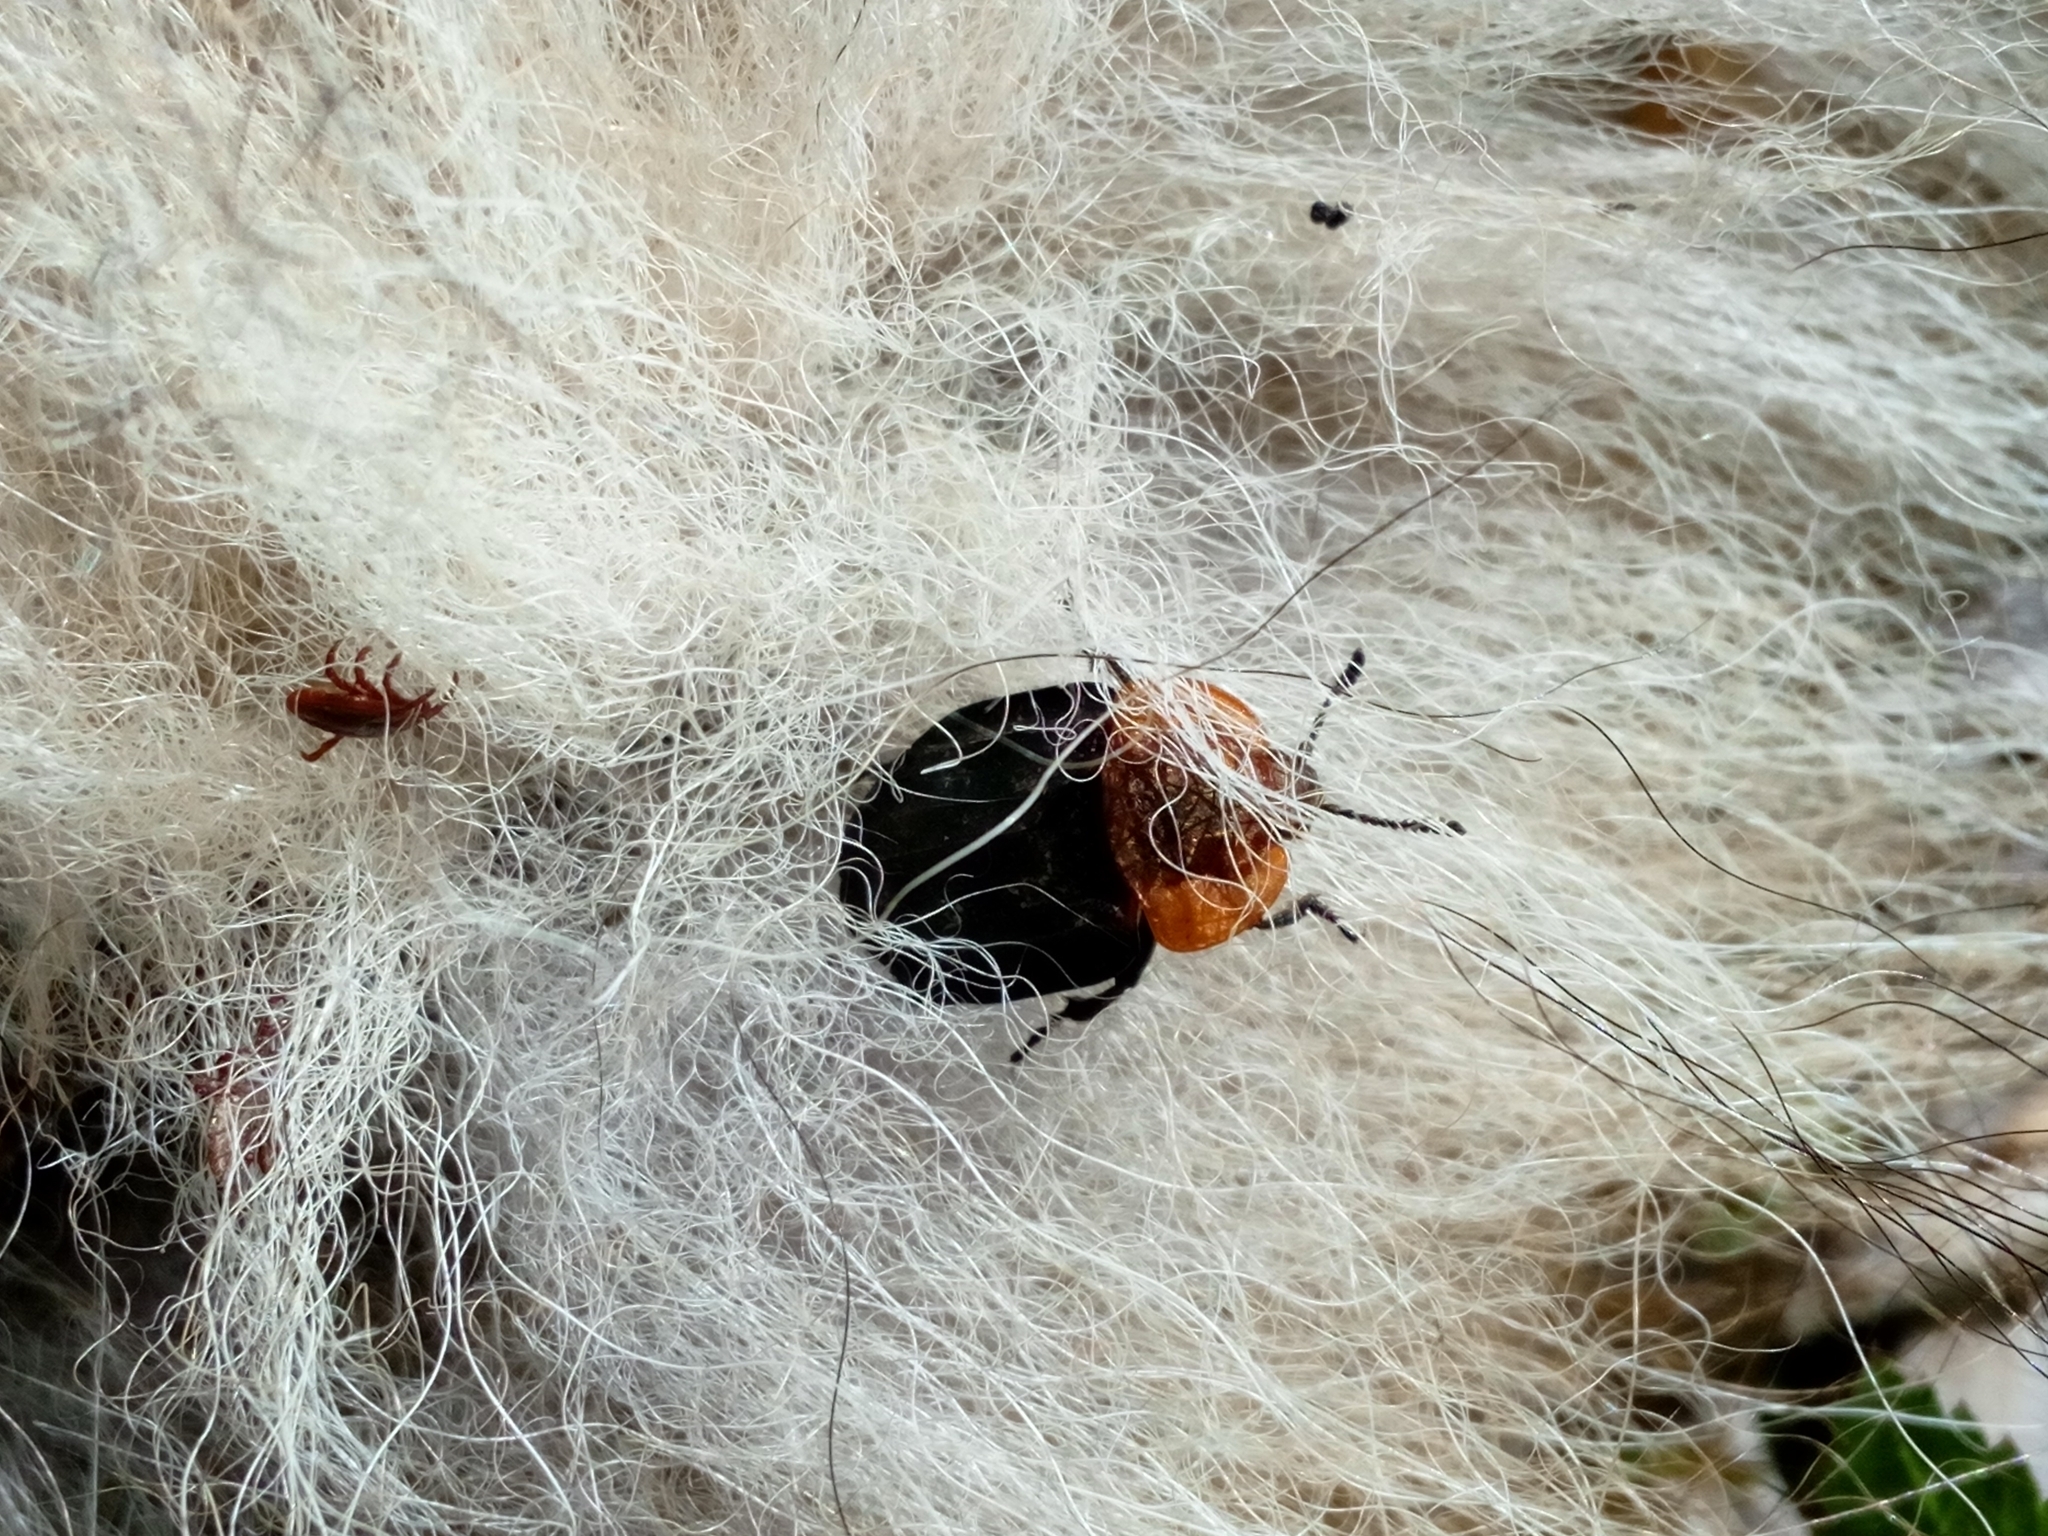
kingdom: Animalia
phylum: Arthropoda
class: Insecta
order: Coleoptera
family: Staphylinidae
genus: Oiceoptoma
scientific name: Oiceoptoma thoracicum
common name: Red-breasted carrion beetle
